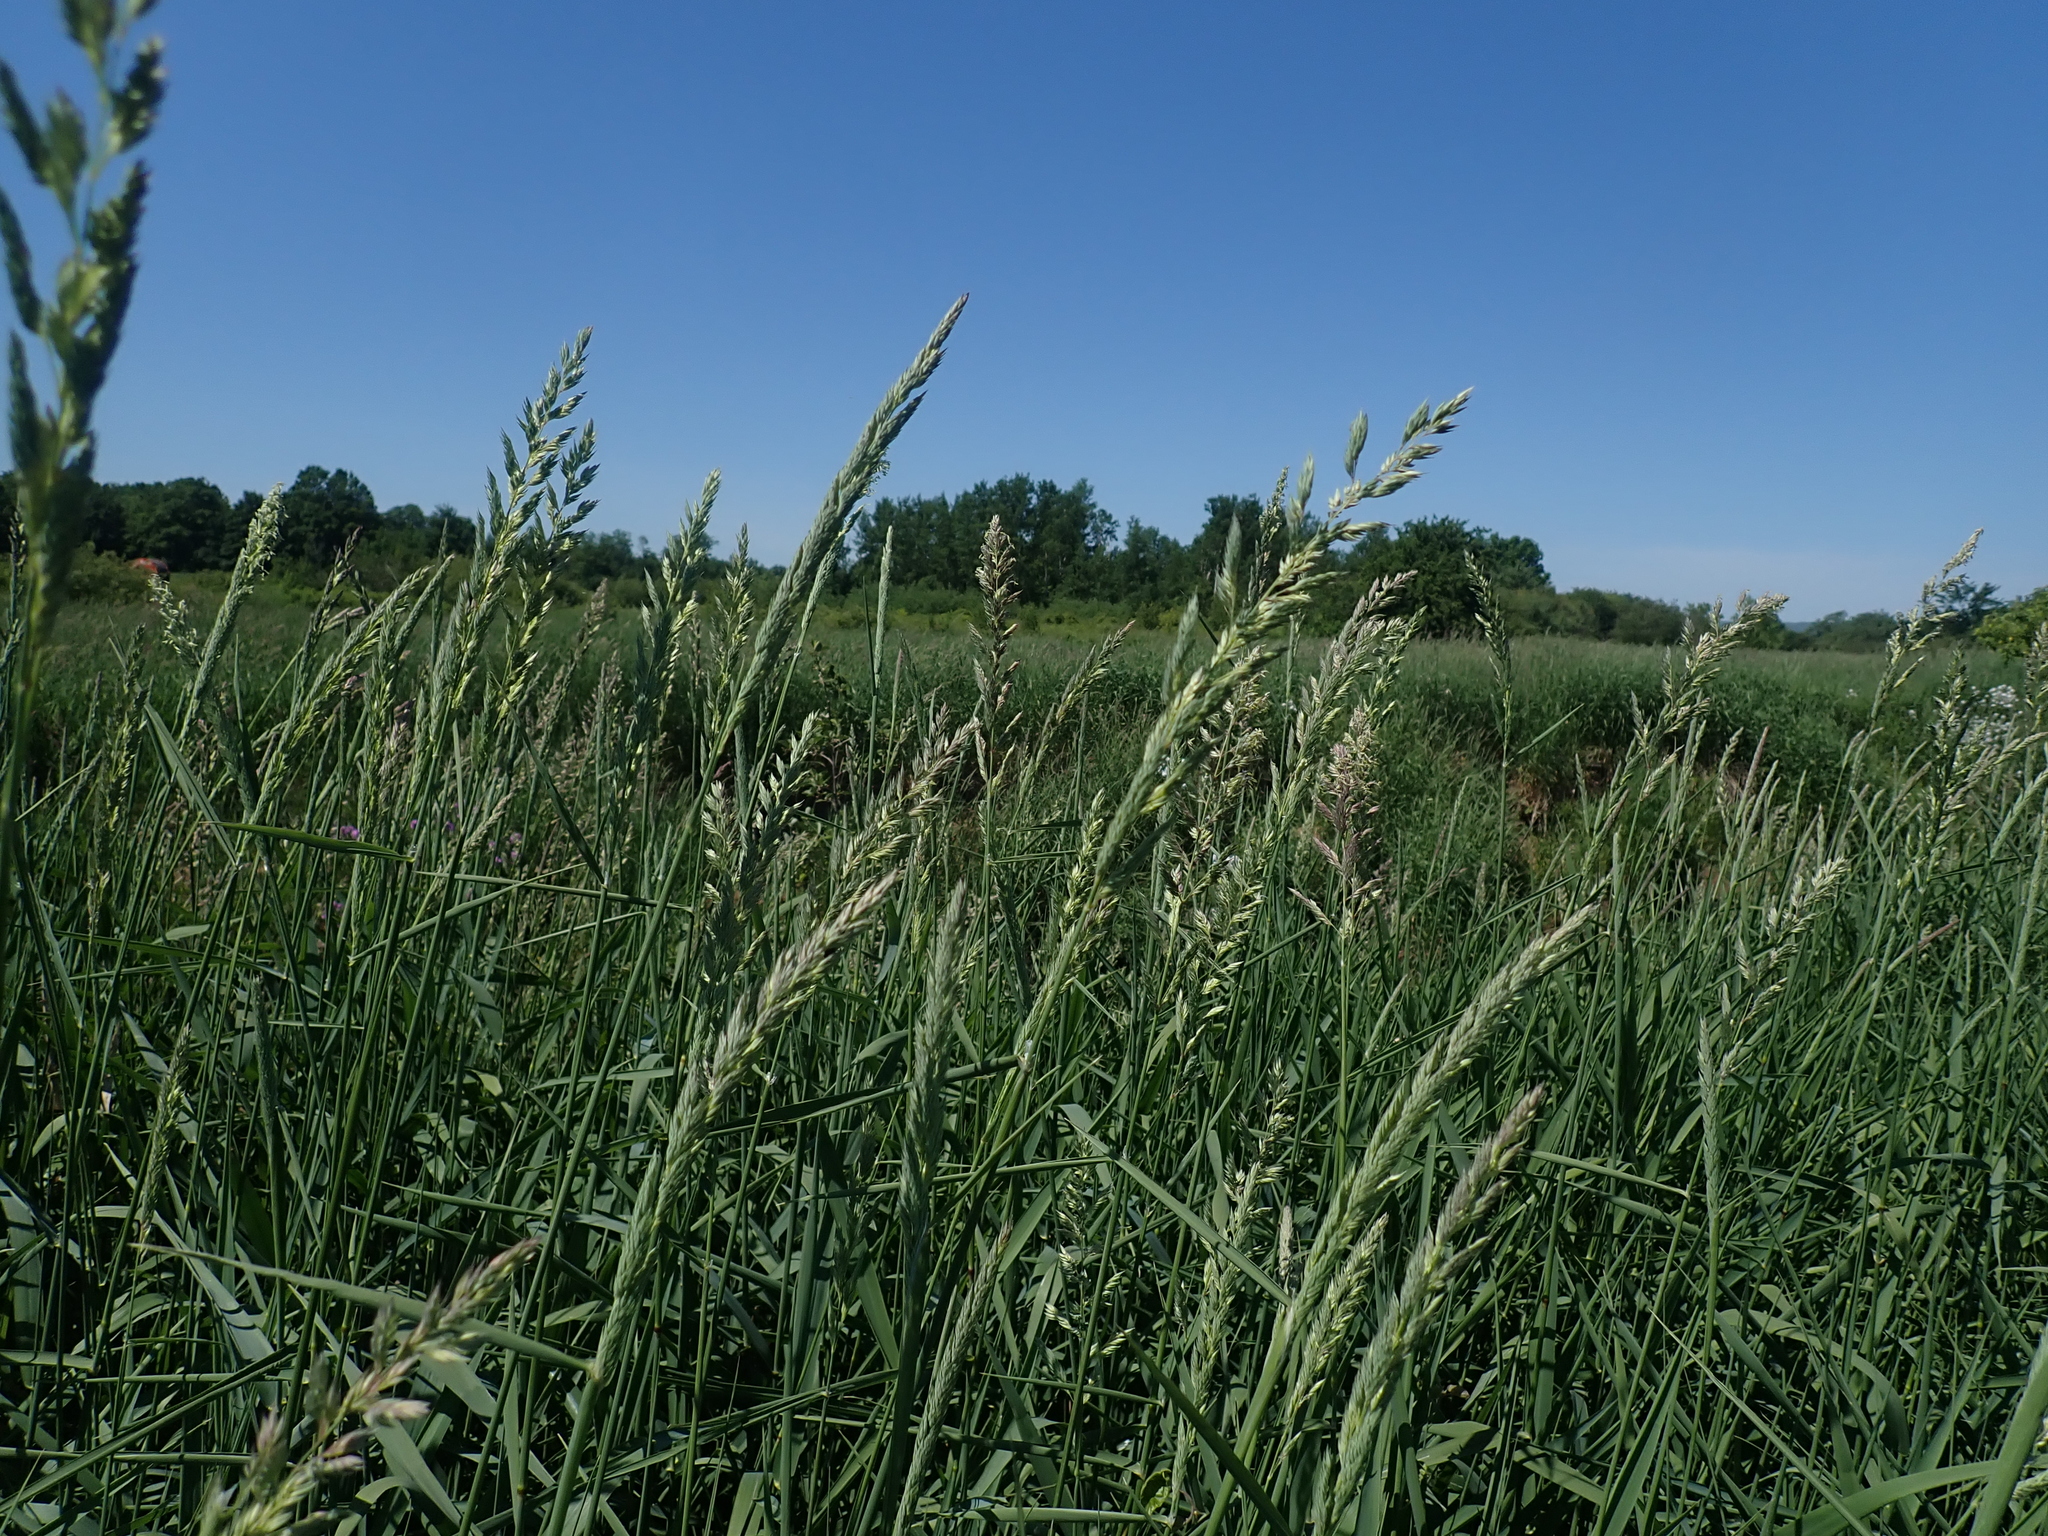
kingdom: Plantae
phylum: Tracheophyta
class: Liliopsida
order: Poales
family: Poaceae
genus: Phalaris
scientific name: Phalaris arundinacea
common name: Reed canary-grass
